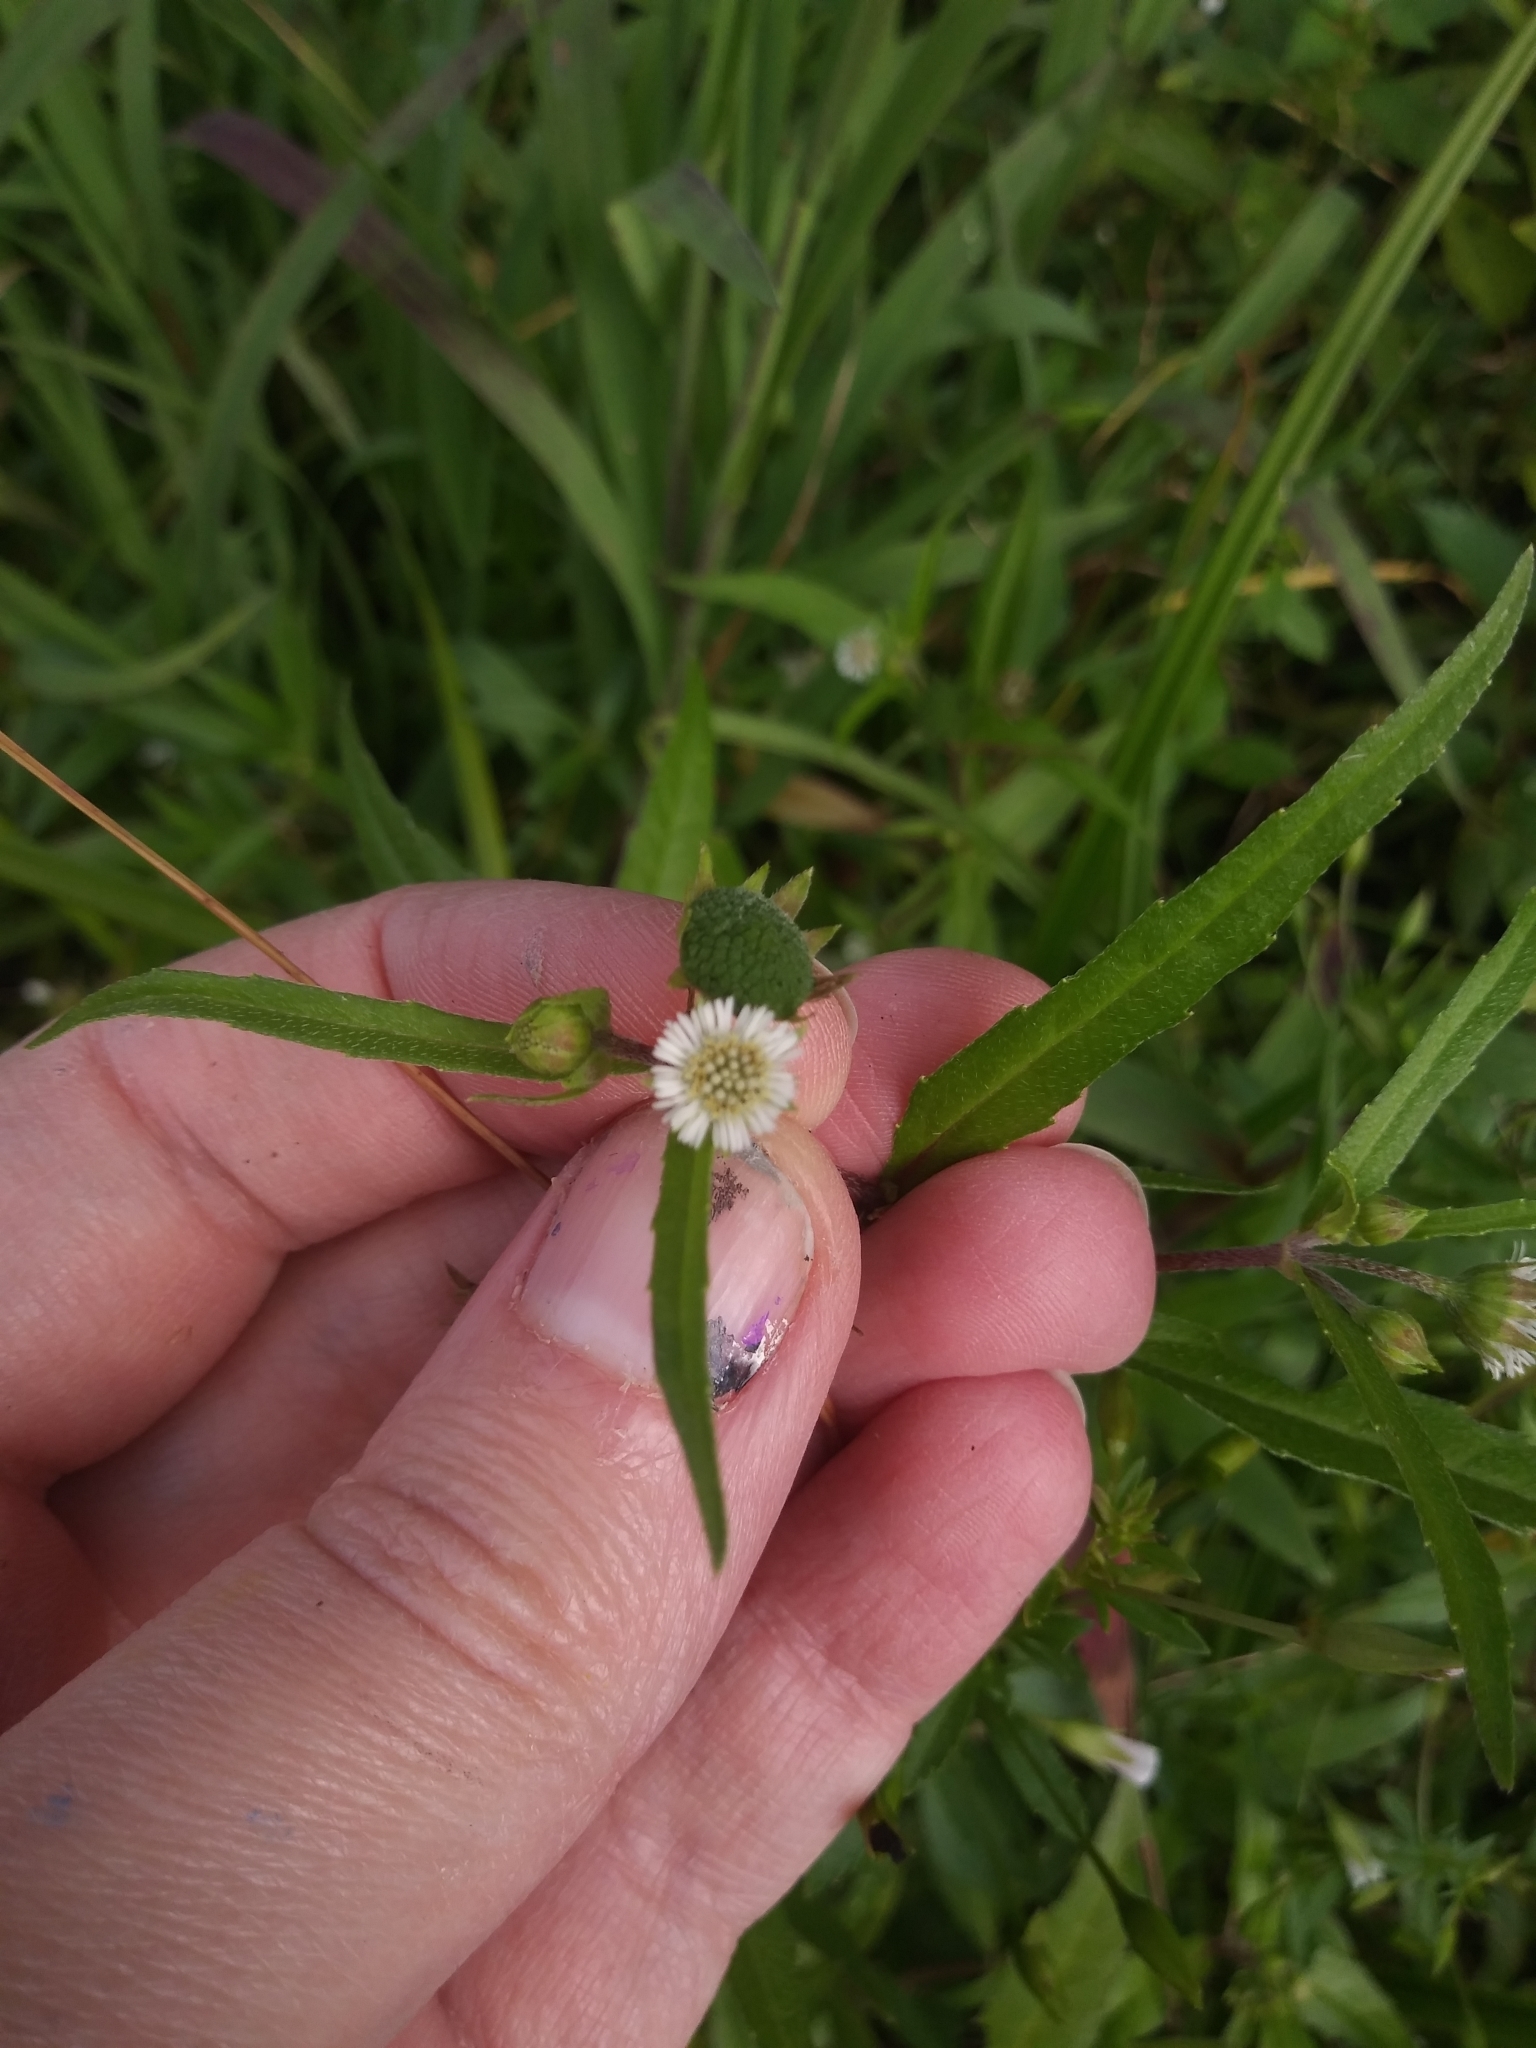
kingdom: Plantae
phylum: Tracheophyta
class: Magnoliopsida
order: Asterales
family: Asteraceae
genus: Eclipta
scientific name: Eclipta prostrata
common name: False daisy
